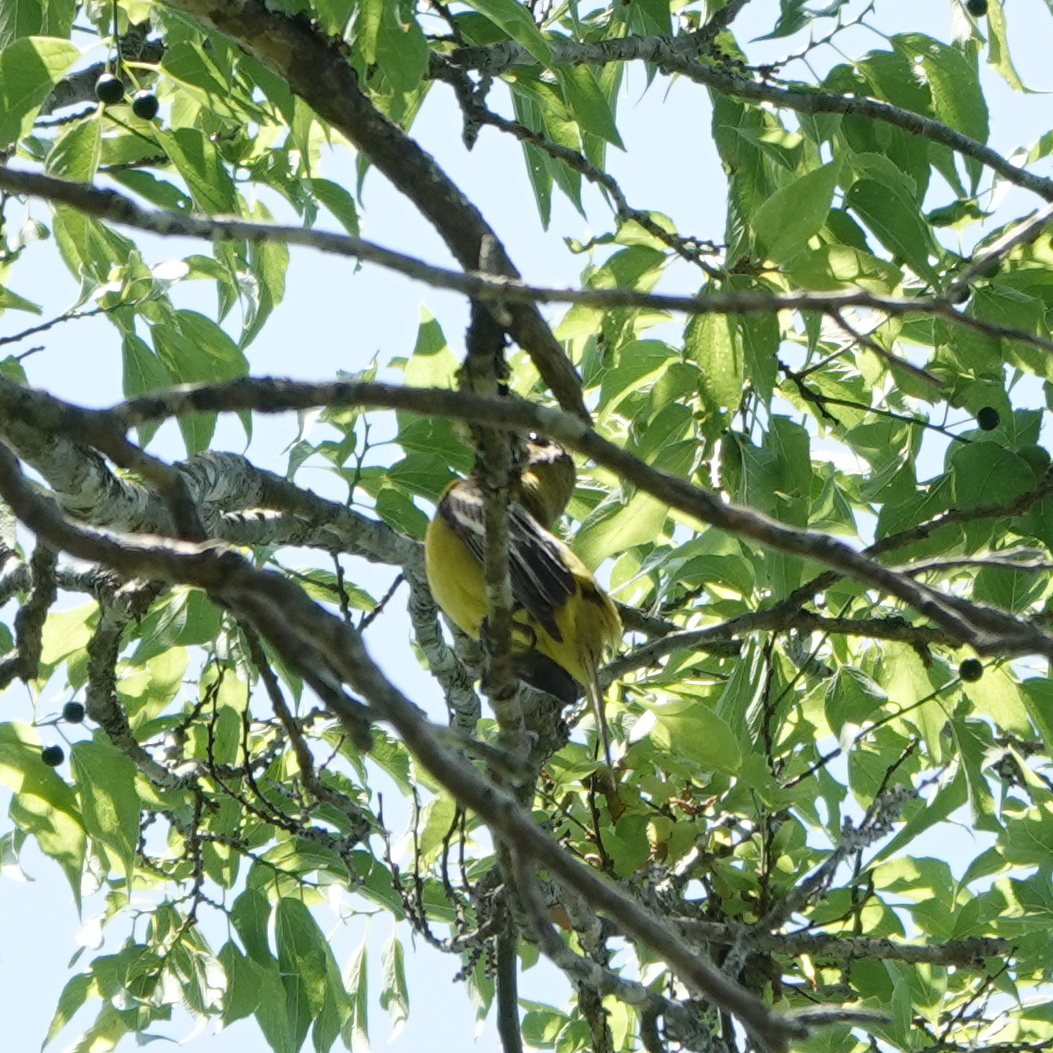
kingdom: Animalia
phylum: Chordata
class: Aves
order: Passeriformes
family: Icteridae
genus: Icterus
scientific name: Icterus spurius
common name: Orchard oriole
